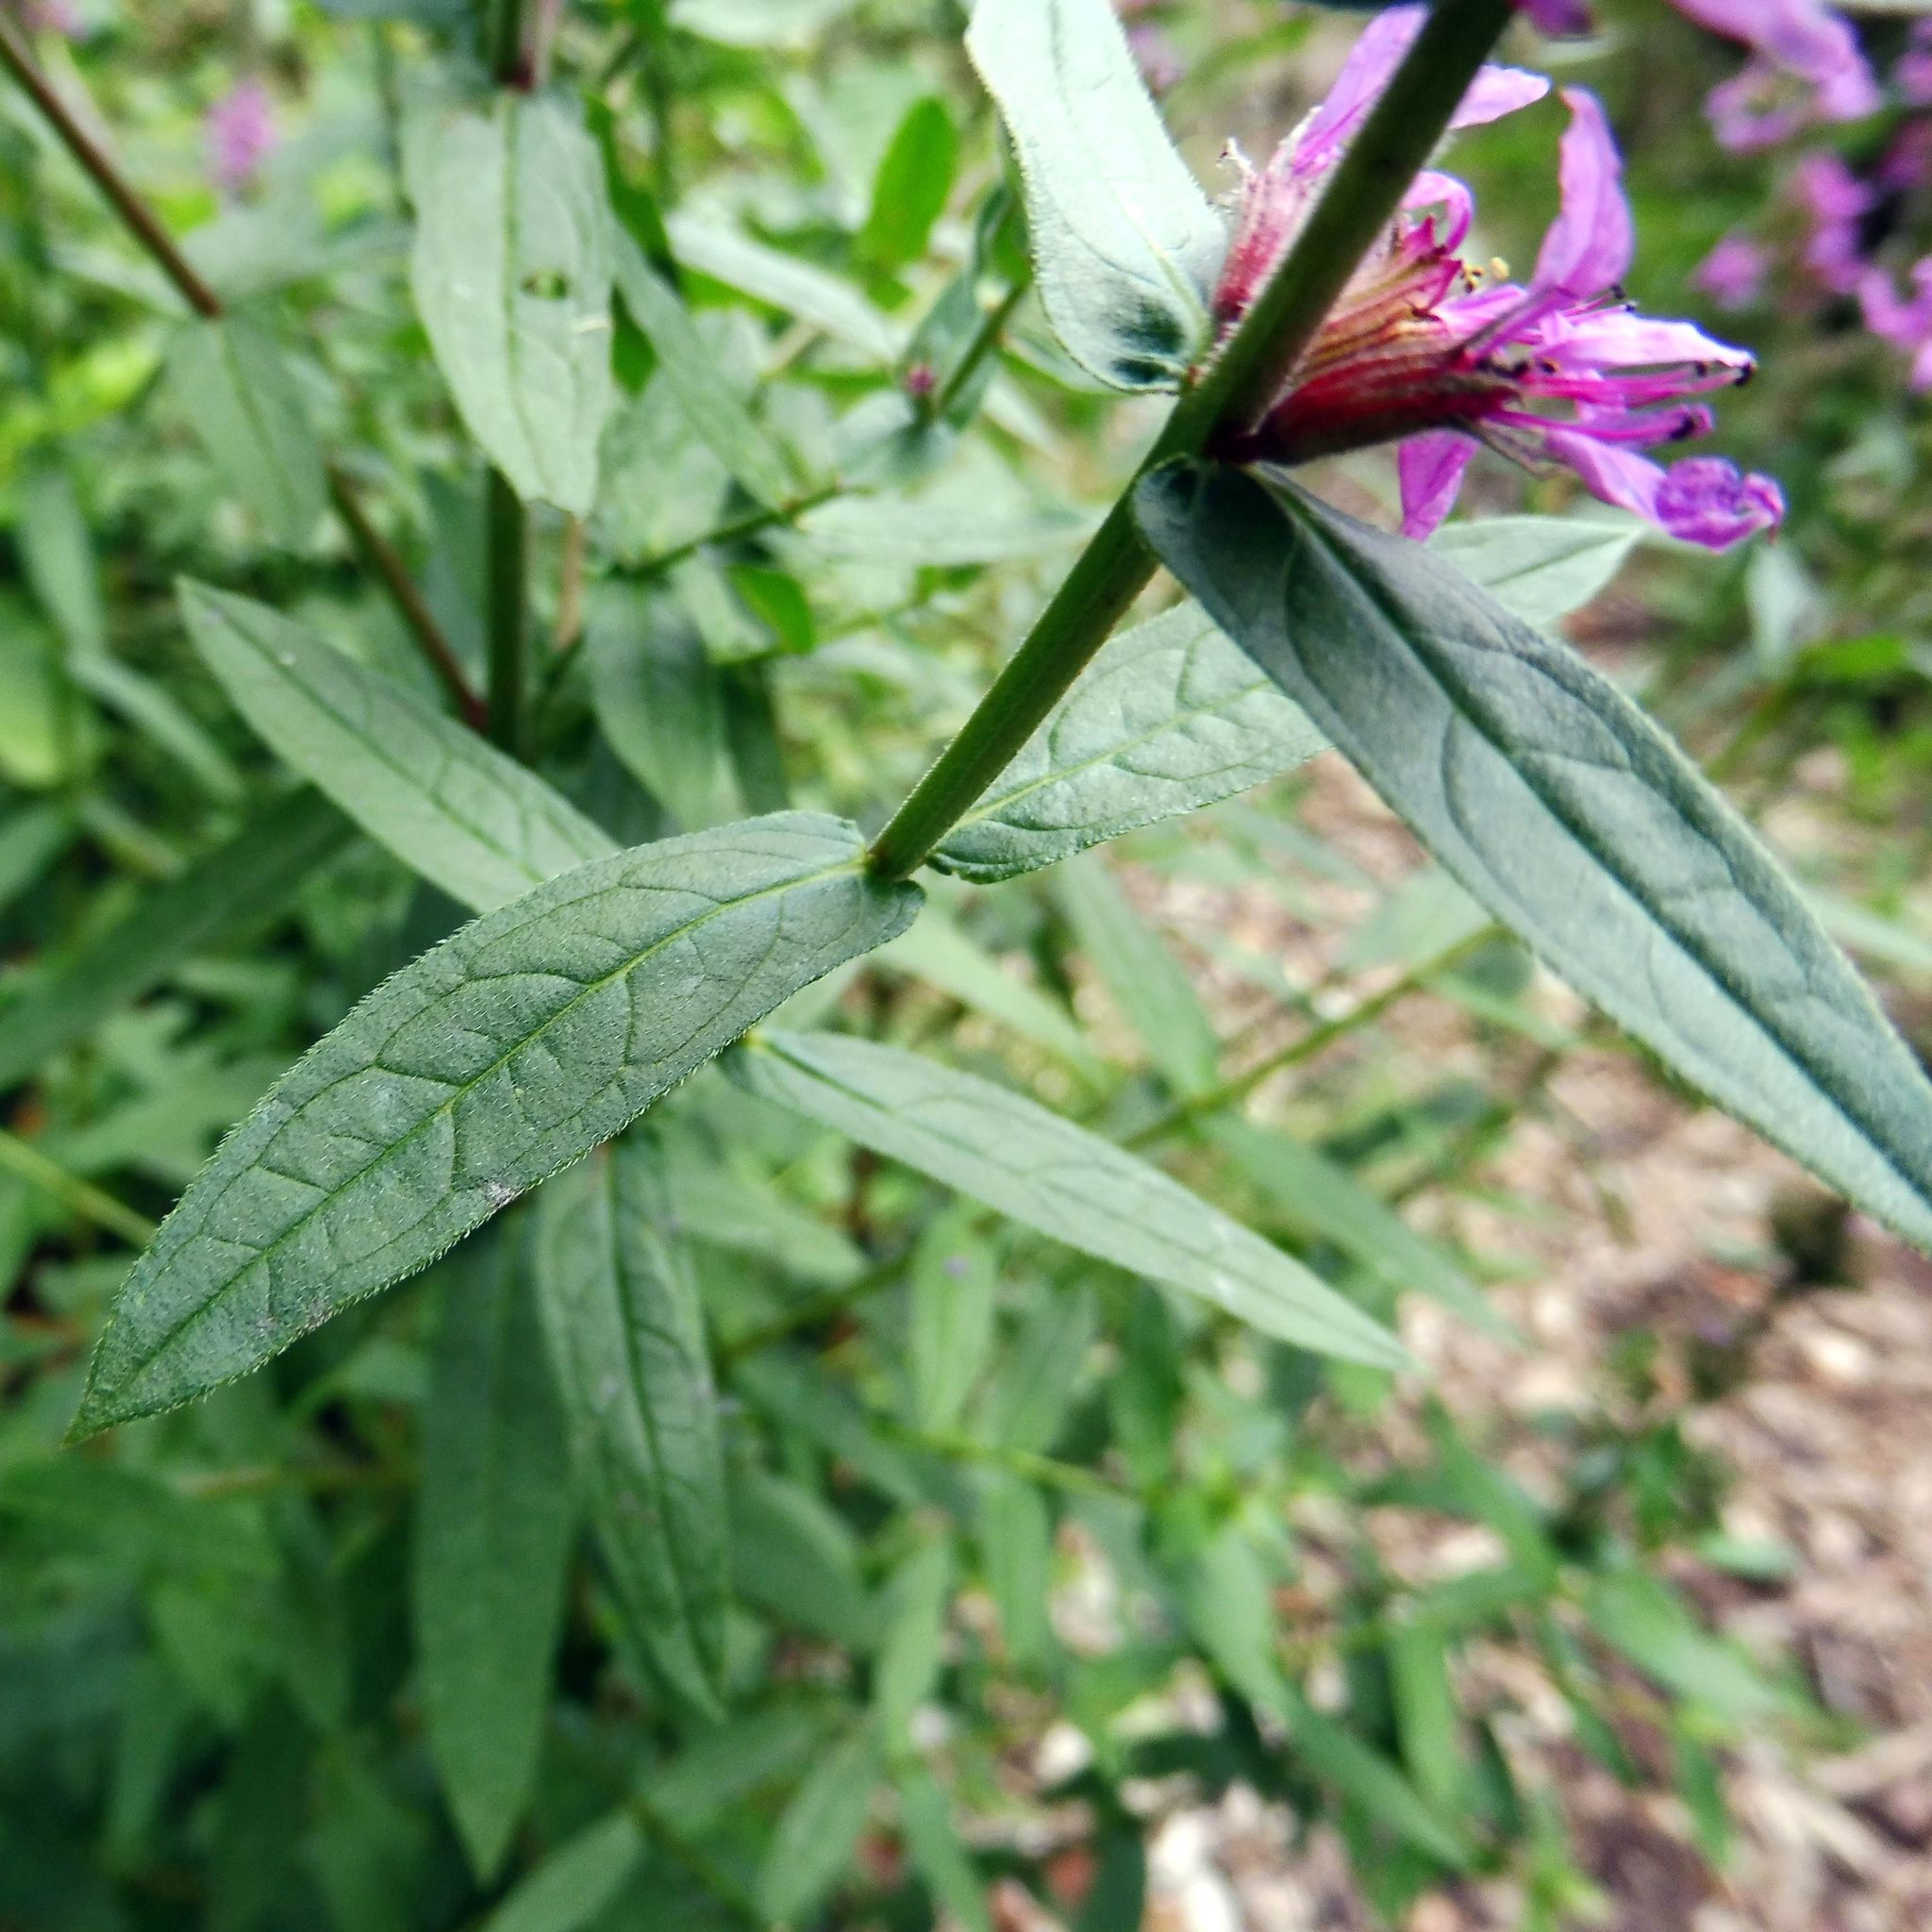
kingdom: Plantae
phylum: Tracheophyta
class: Magnoliopsida
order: Myrtales
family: Lythraceae
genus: Lythrum
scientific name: Lythrum salicaria
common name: Purple loosestrife
